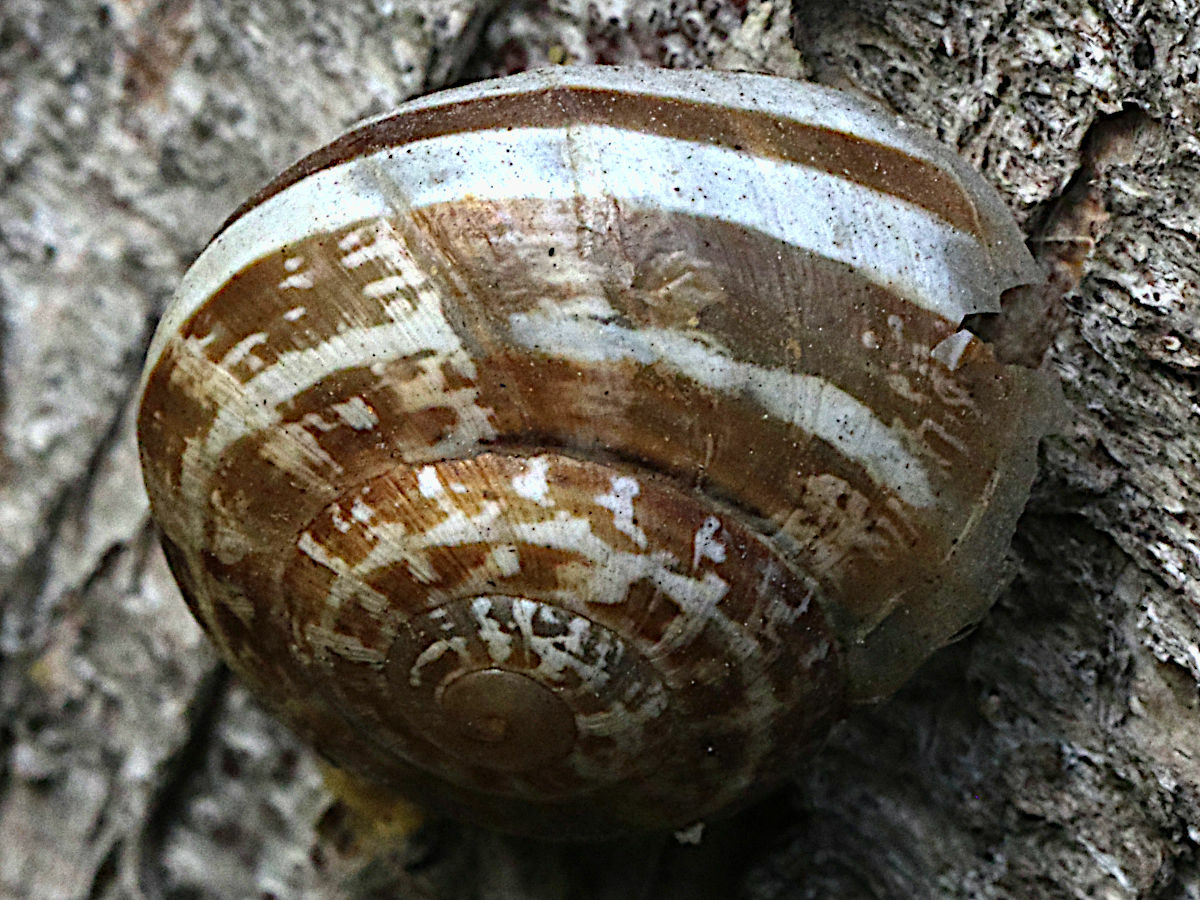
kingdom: Animalia
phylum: Mollusca
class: Gastropoda
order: Stylommatophora
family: Helicidae
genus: Eobania
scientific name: Eobania vermiculata
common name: Chocolateband snail
